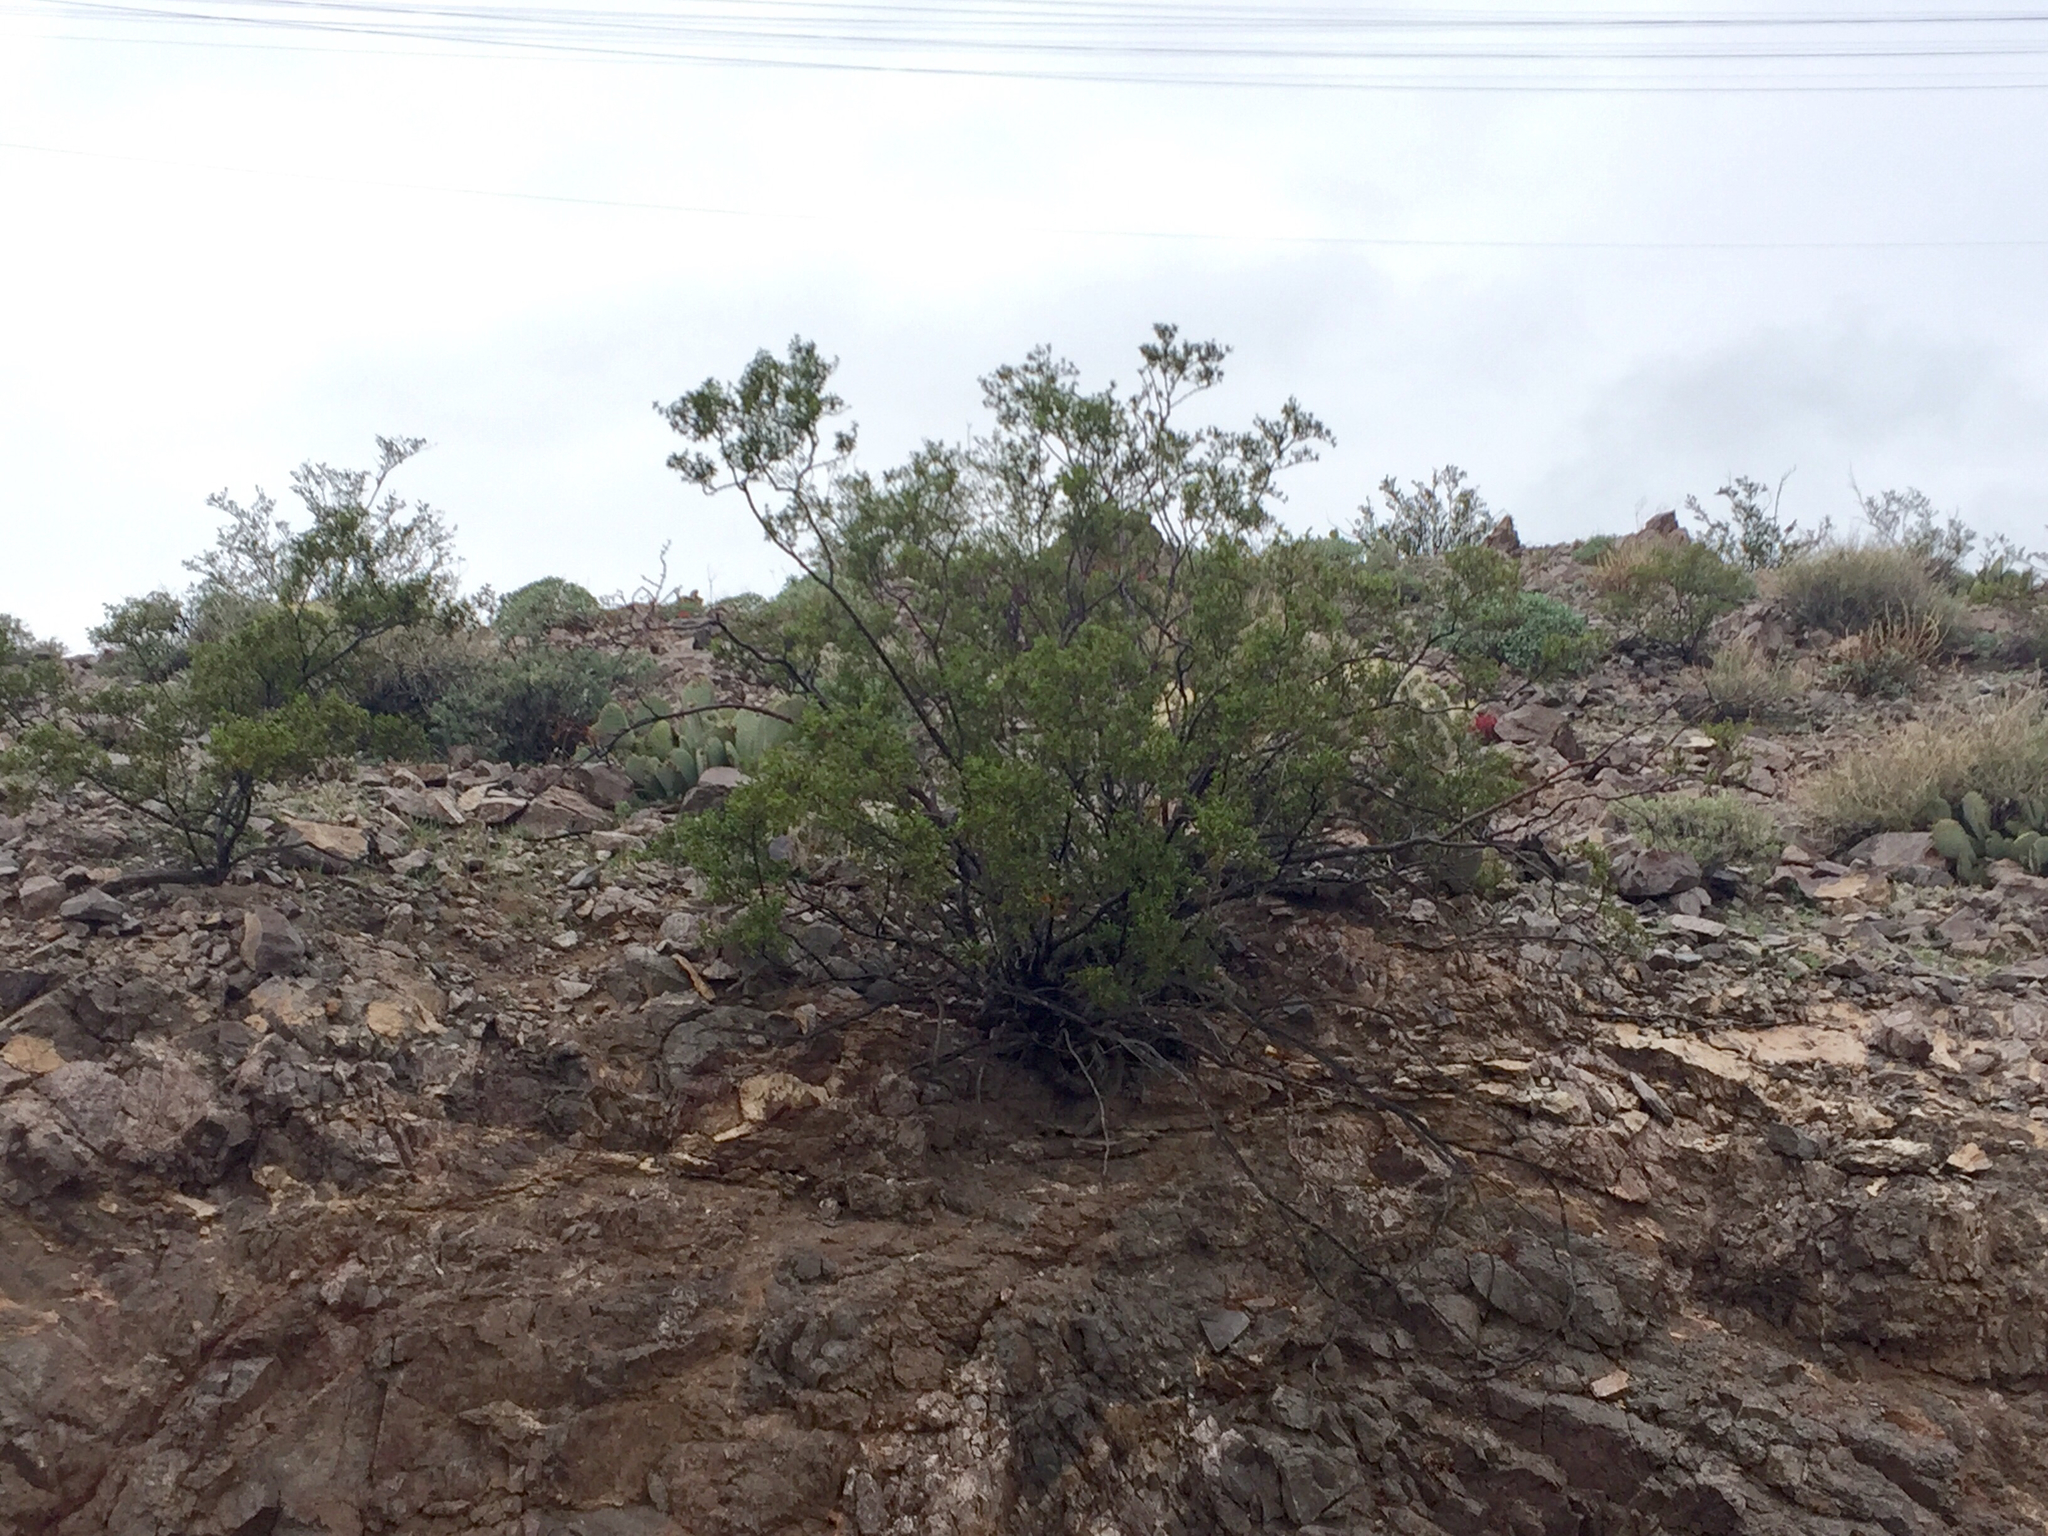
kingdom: Plantae
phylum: Tracheophyta
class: Magnoliopsida
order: Zygophyllales
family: Zygophyllaceae
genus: Larrea
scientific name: Larrea tridentata
